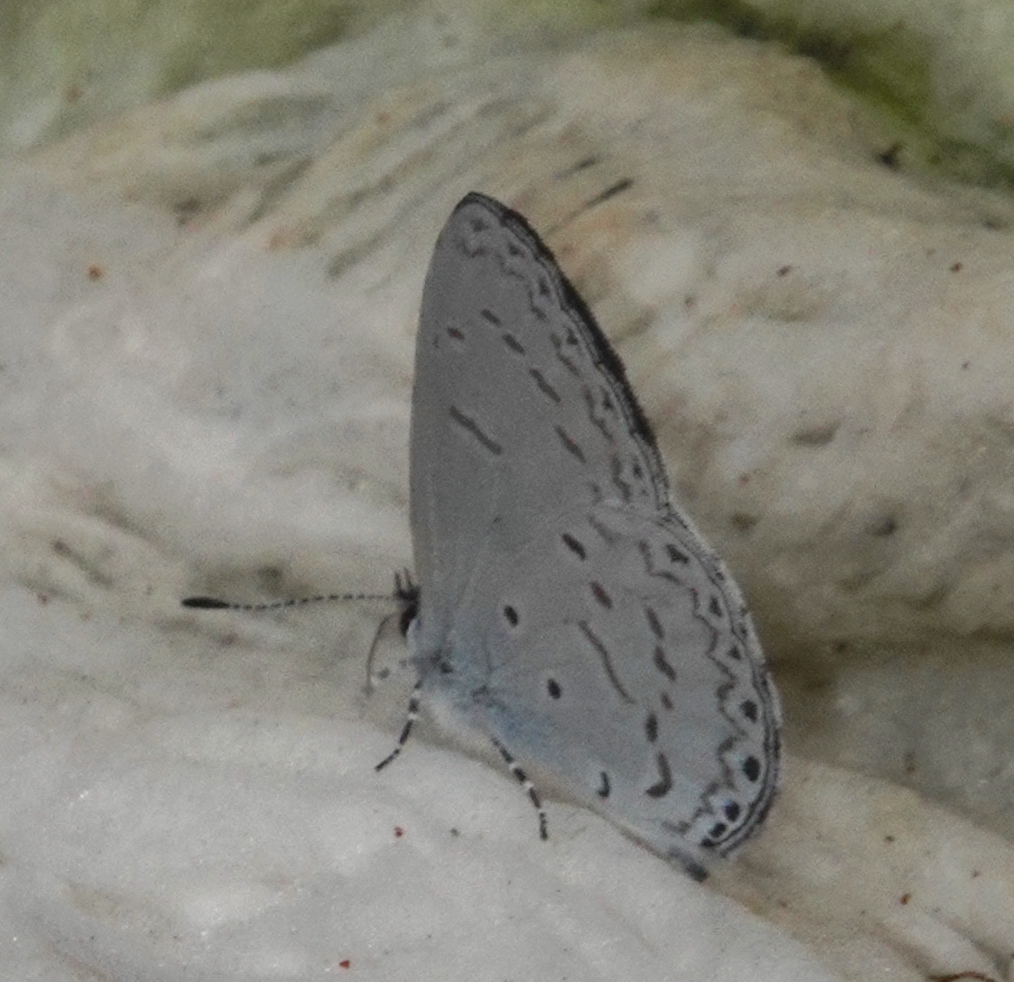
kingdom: Animalia
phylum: Arthropoda
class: Insecta
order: Lepidoptera
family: Lycaenidae
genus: Udara
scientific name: Udara dilectus
